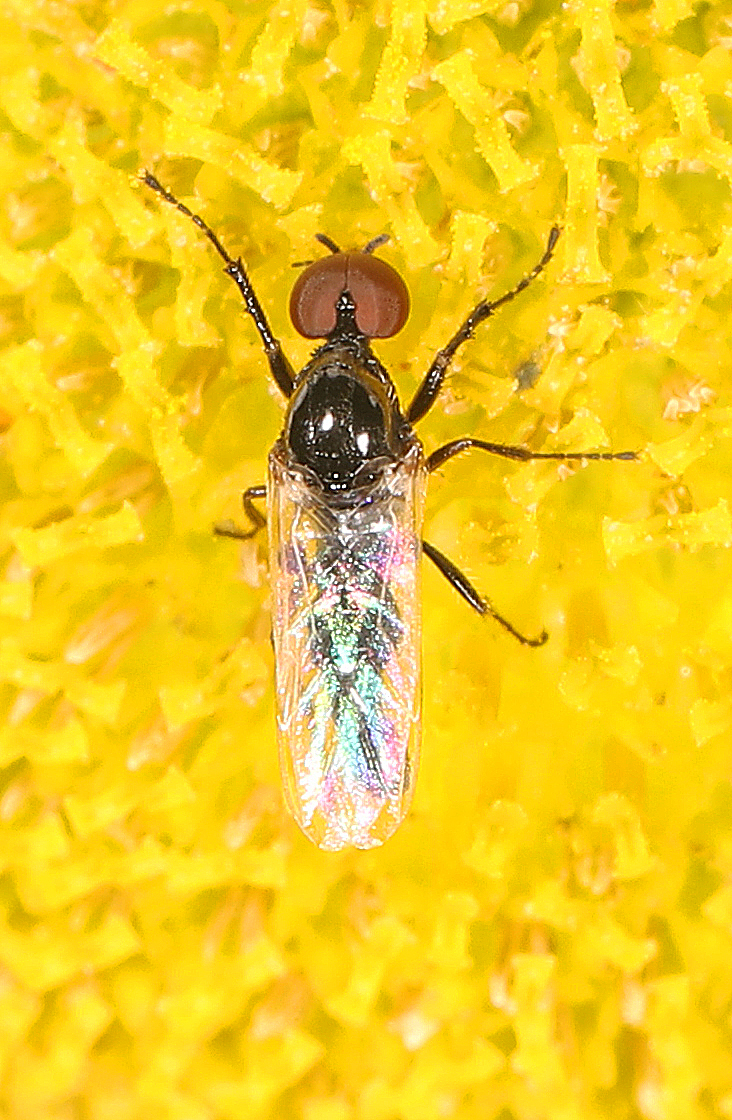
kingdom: Animalia
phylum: Arthropoda
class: Insecta
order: Diptera
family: Bibionidae
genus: Dilophus
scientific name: Dilophus
